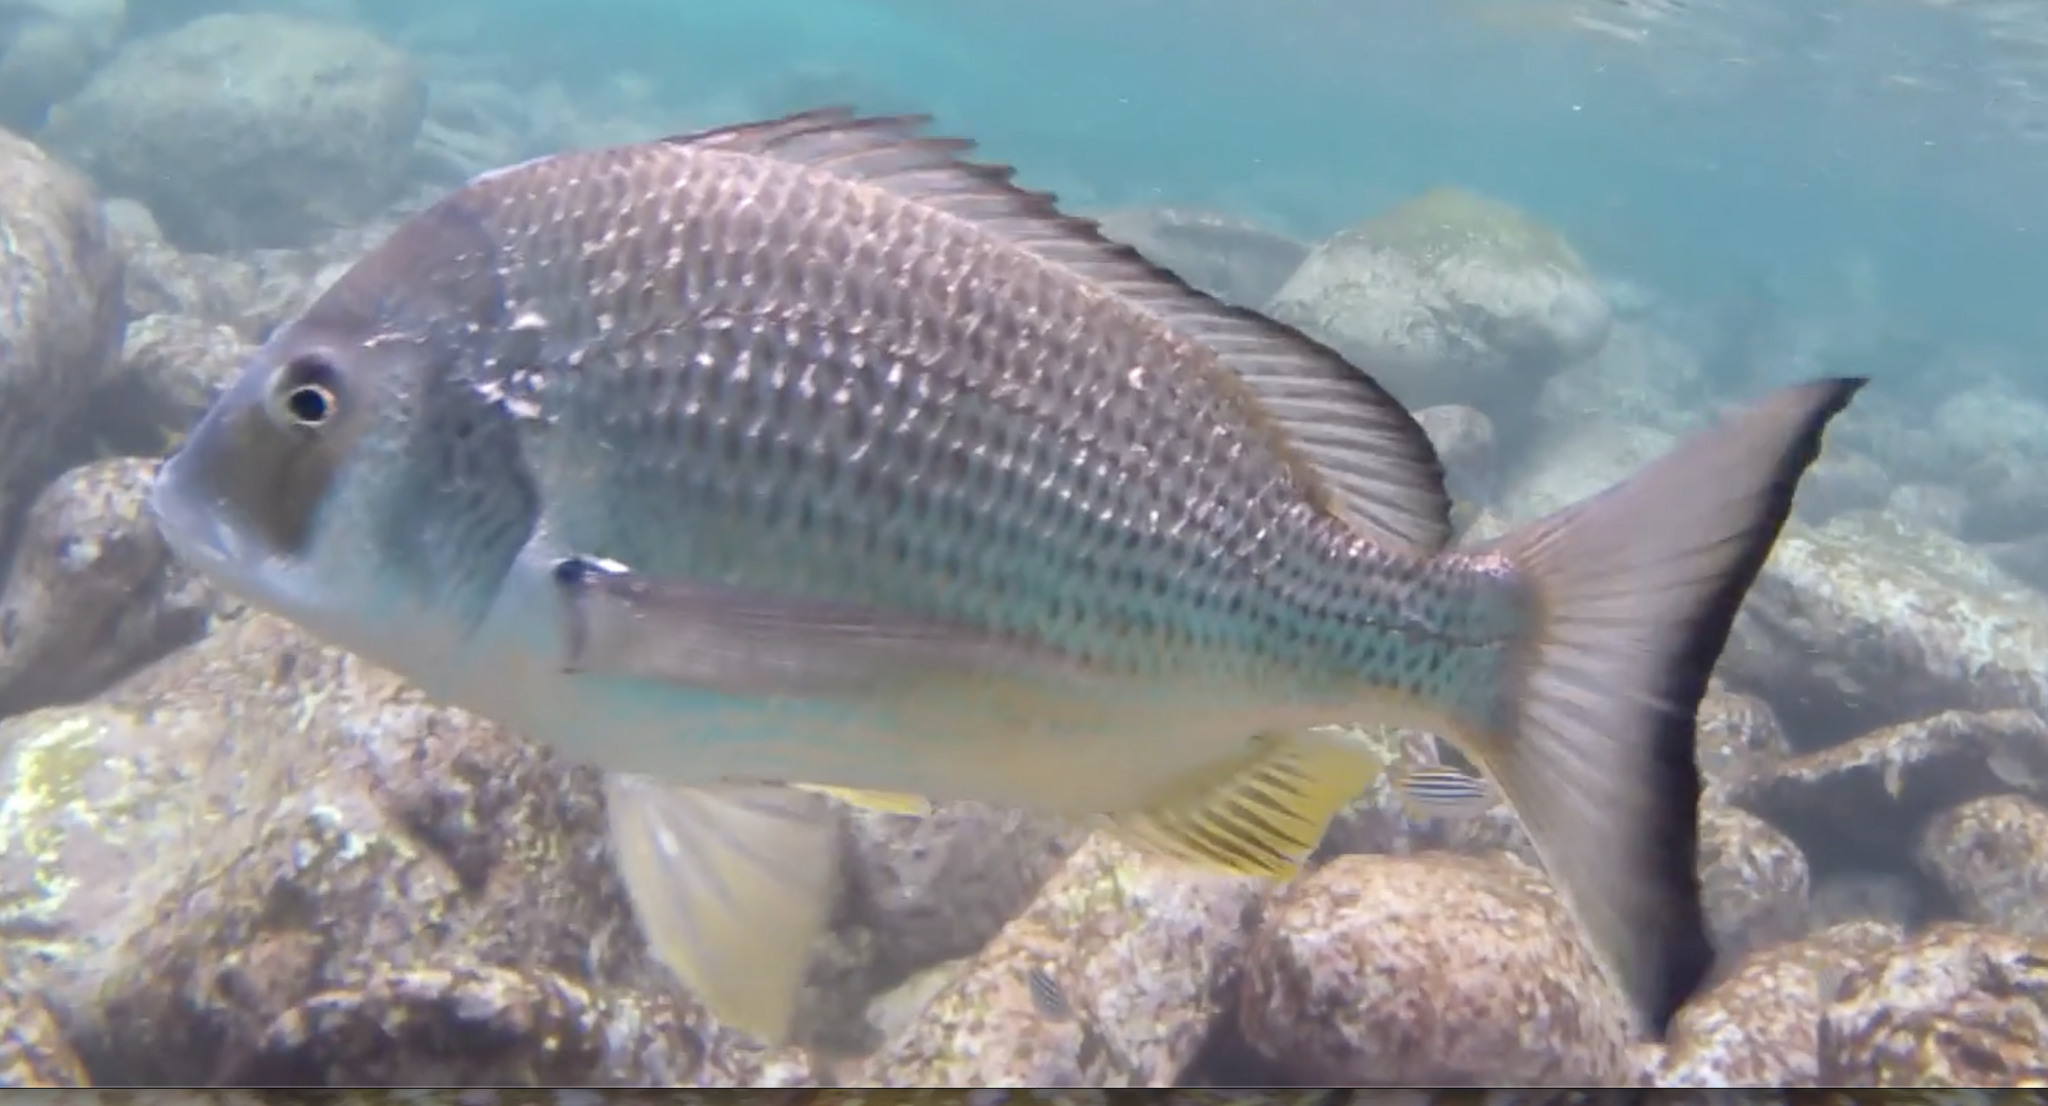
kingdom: Animalia
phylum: Chordata
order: Perciformes
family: Sparidae
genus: Acanthopagrus
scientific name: Acanthopagrus australis
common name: Surf bream
